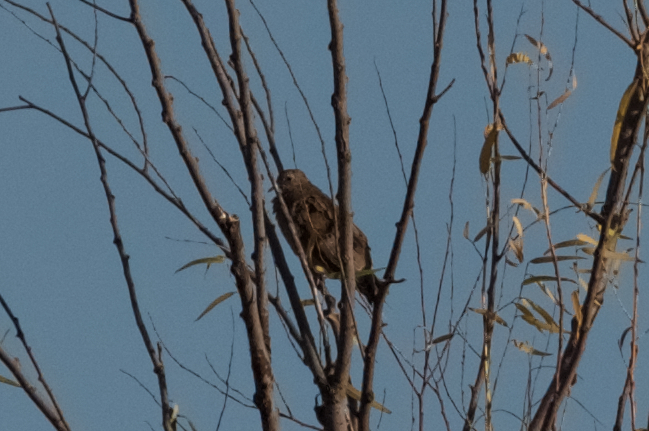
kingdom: Animalia
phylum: Chordata
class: Aves
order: Columbiformes
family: Columbidae
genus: Zenaida
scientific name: Zenaida macroura
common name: Mourning dove
